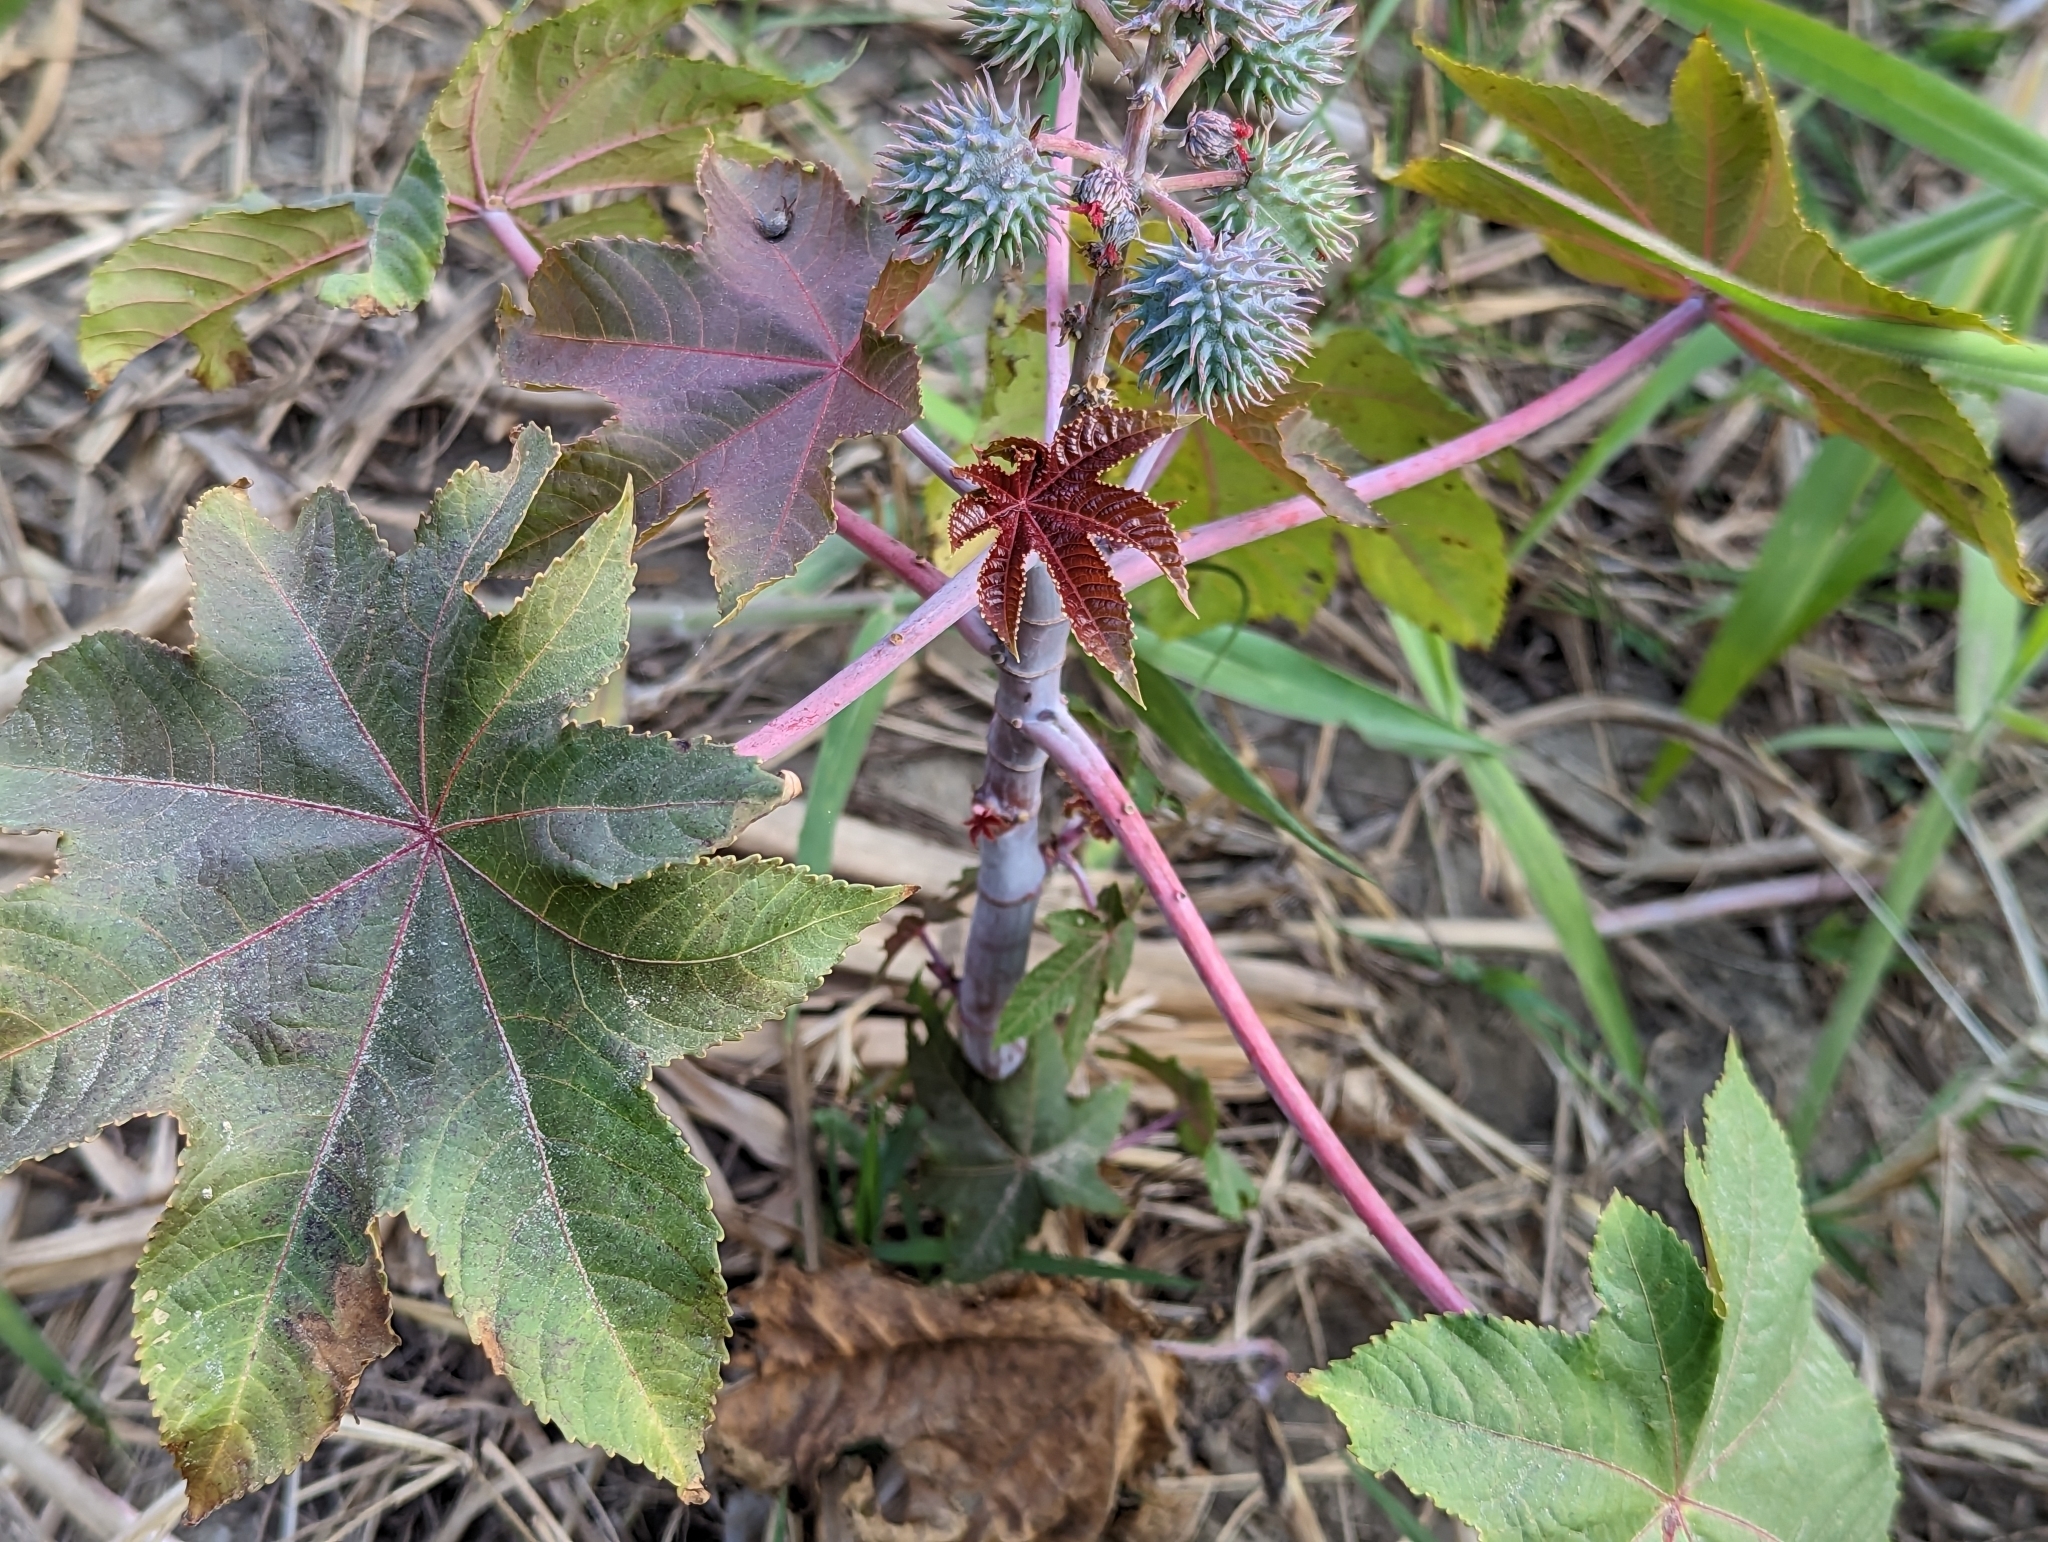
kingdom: Plantae
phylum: Tracheophyta
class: Magnoliopsida
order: Malpighiales
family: Euphorbiaceae
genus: Ricinus
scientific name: Ricinus communis
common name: Castor-oil-plant
